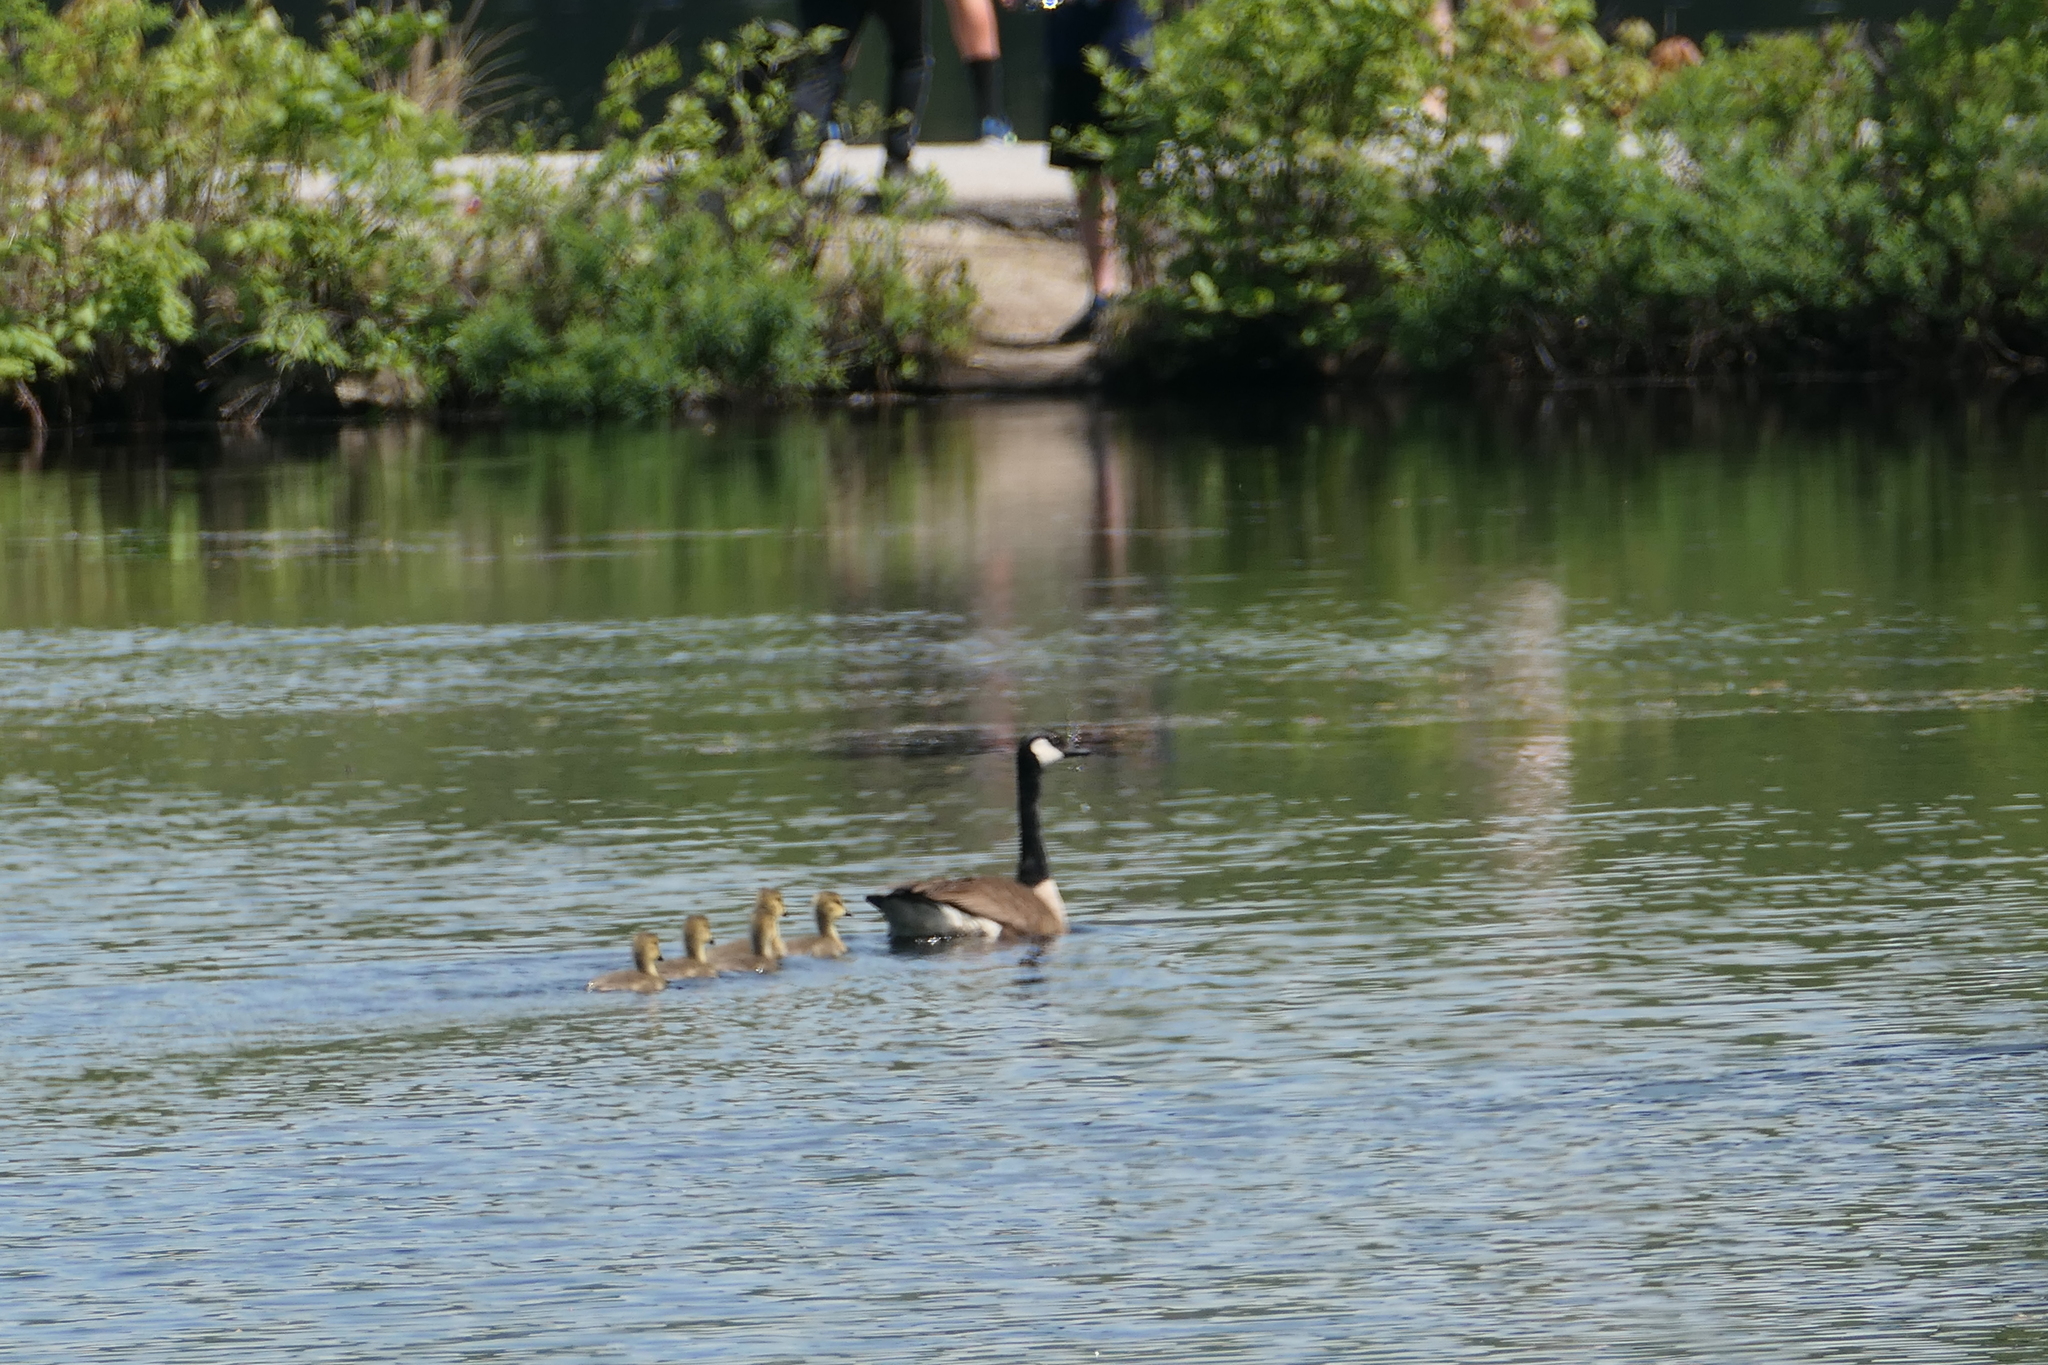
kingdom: Animalia
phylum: Chordata
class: Aves
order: Anseriformes
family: Anatidae
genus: Branta
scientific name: Branta canadensis
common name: Canada goose
